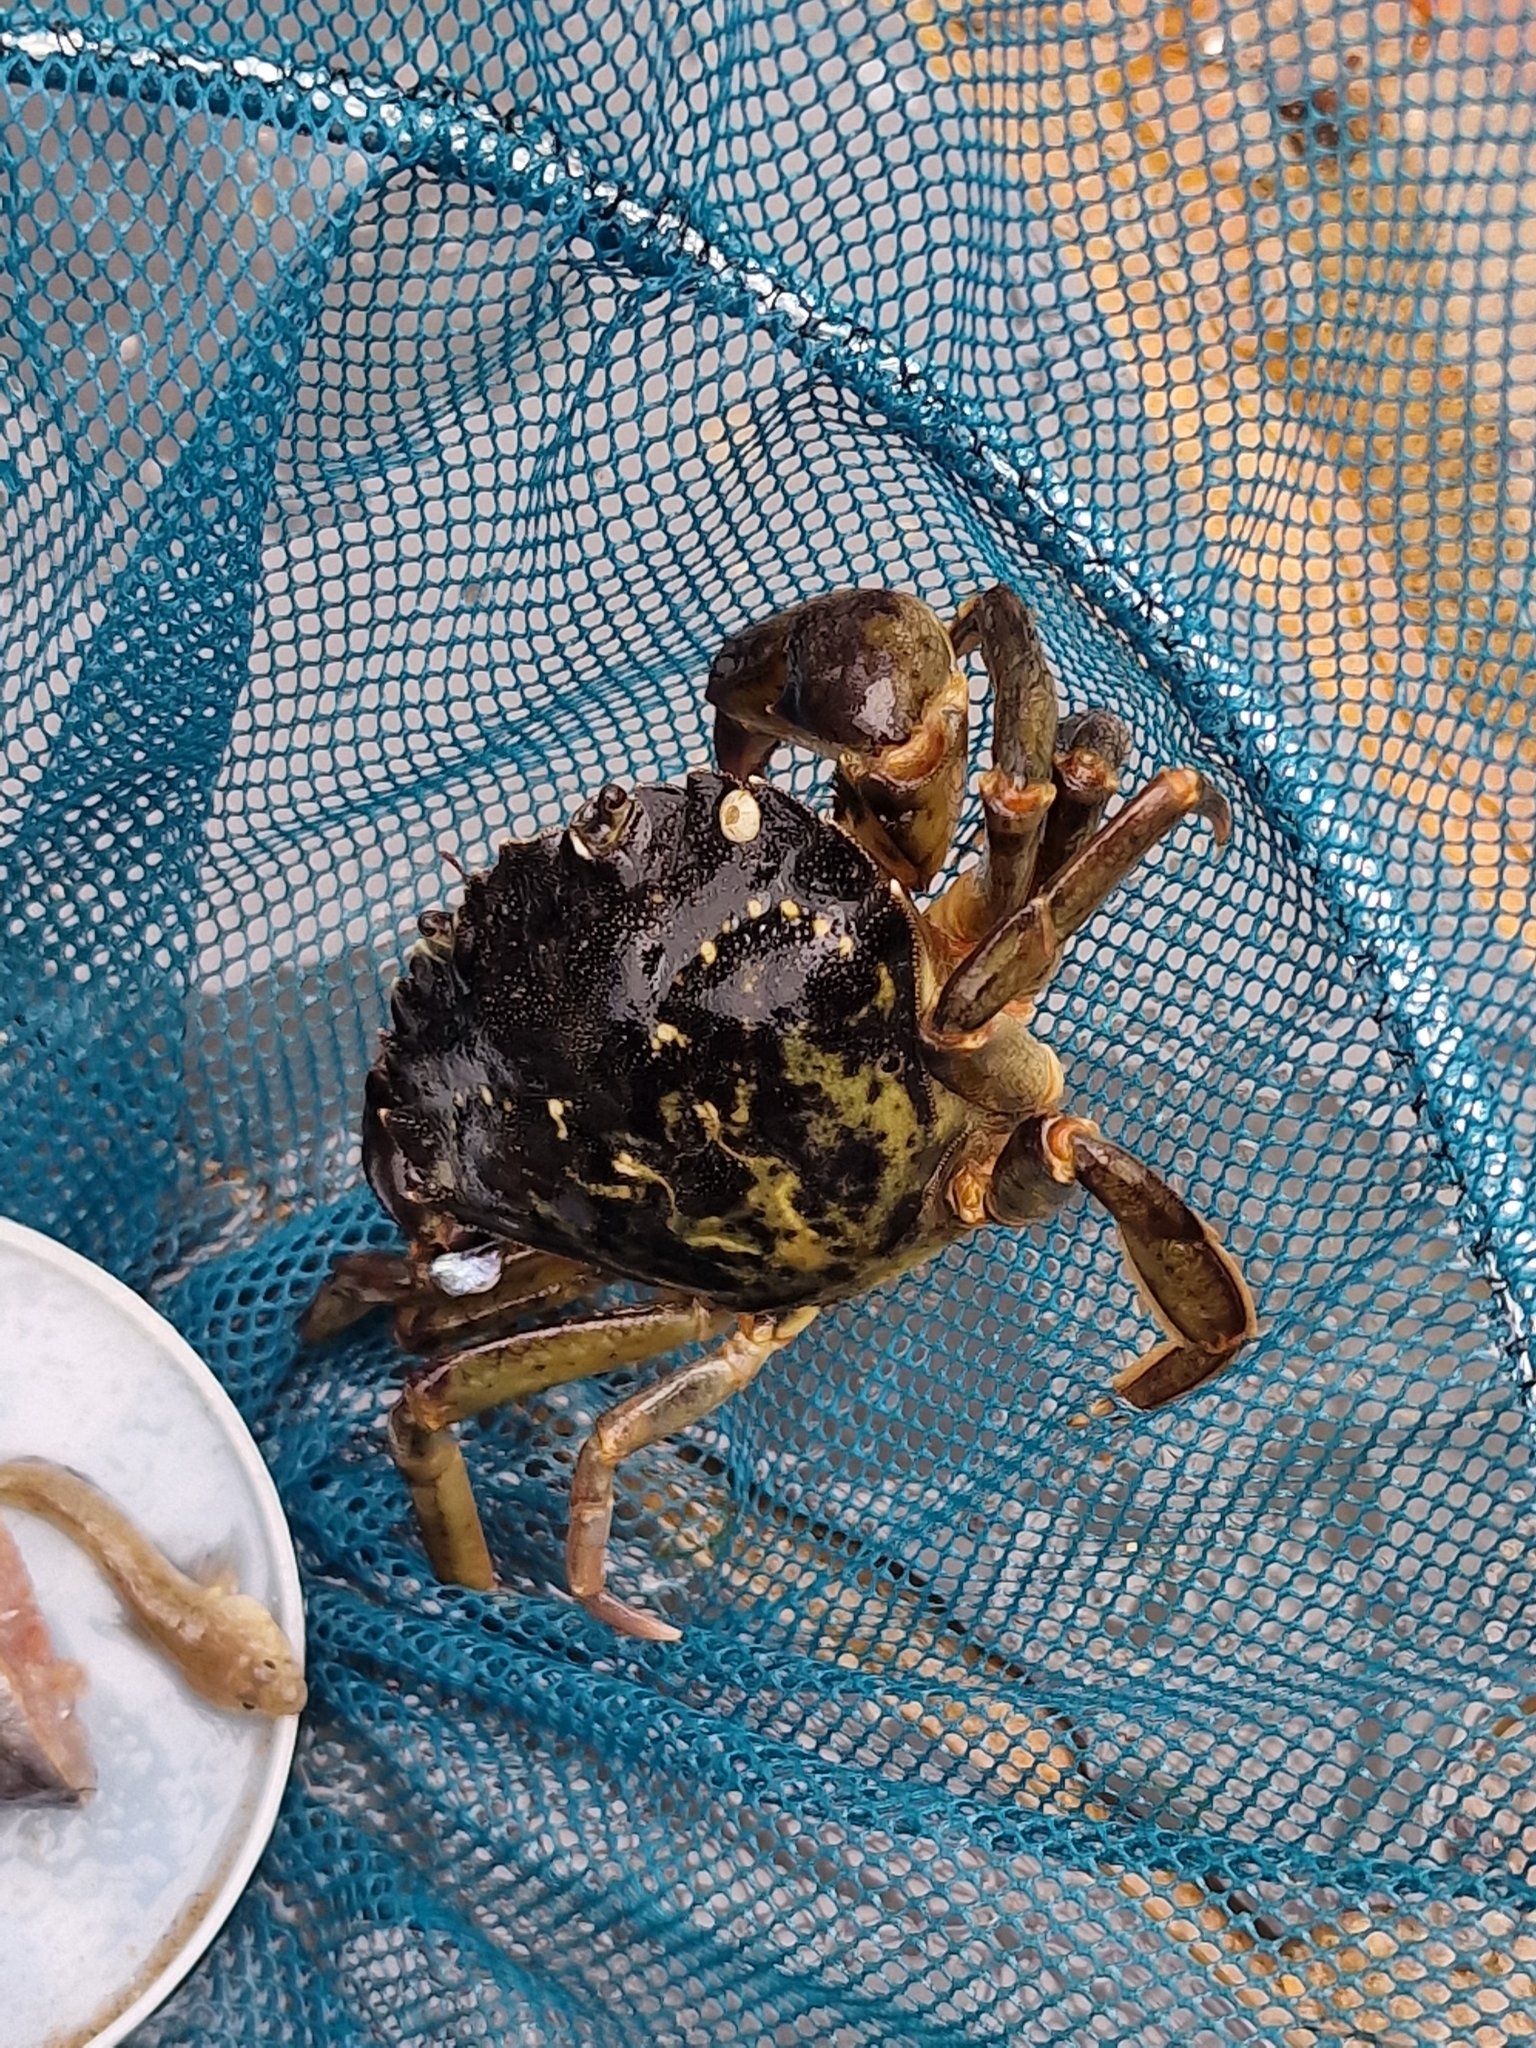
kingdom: Animalia
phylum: Arthropoda
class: Malacostraca
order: Decapoda
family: Carcinidae
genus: Carcinus
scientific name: Carcinus maenas
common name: European green crab
